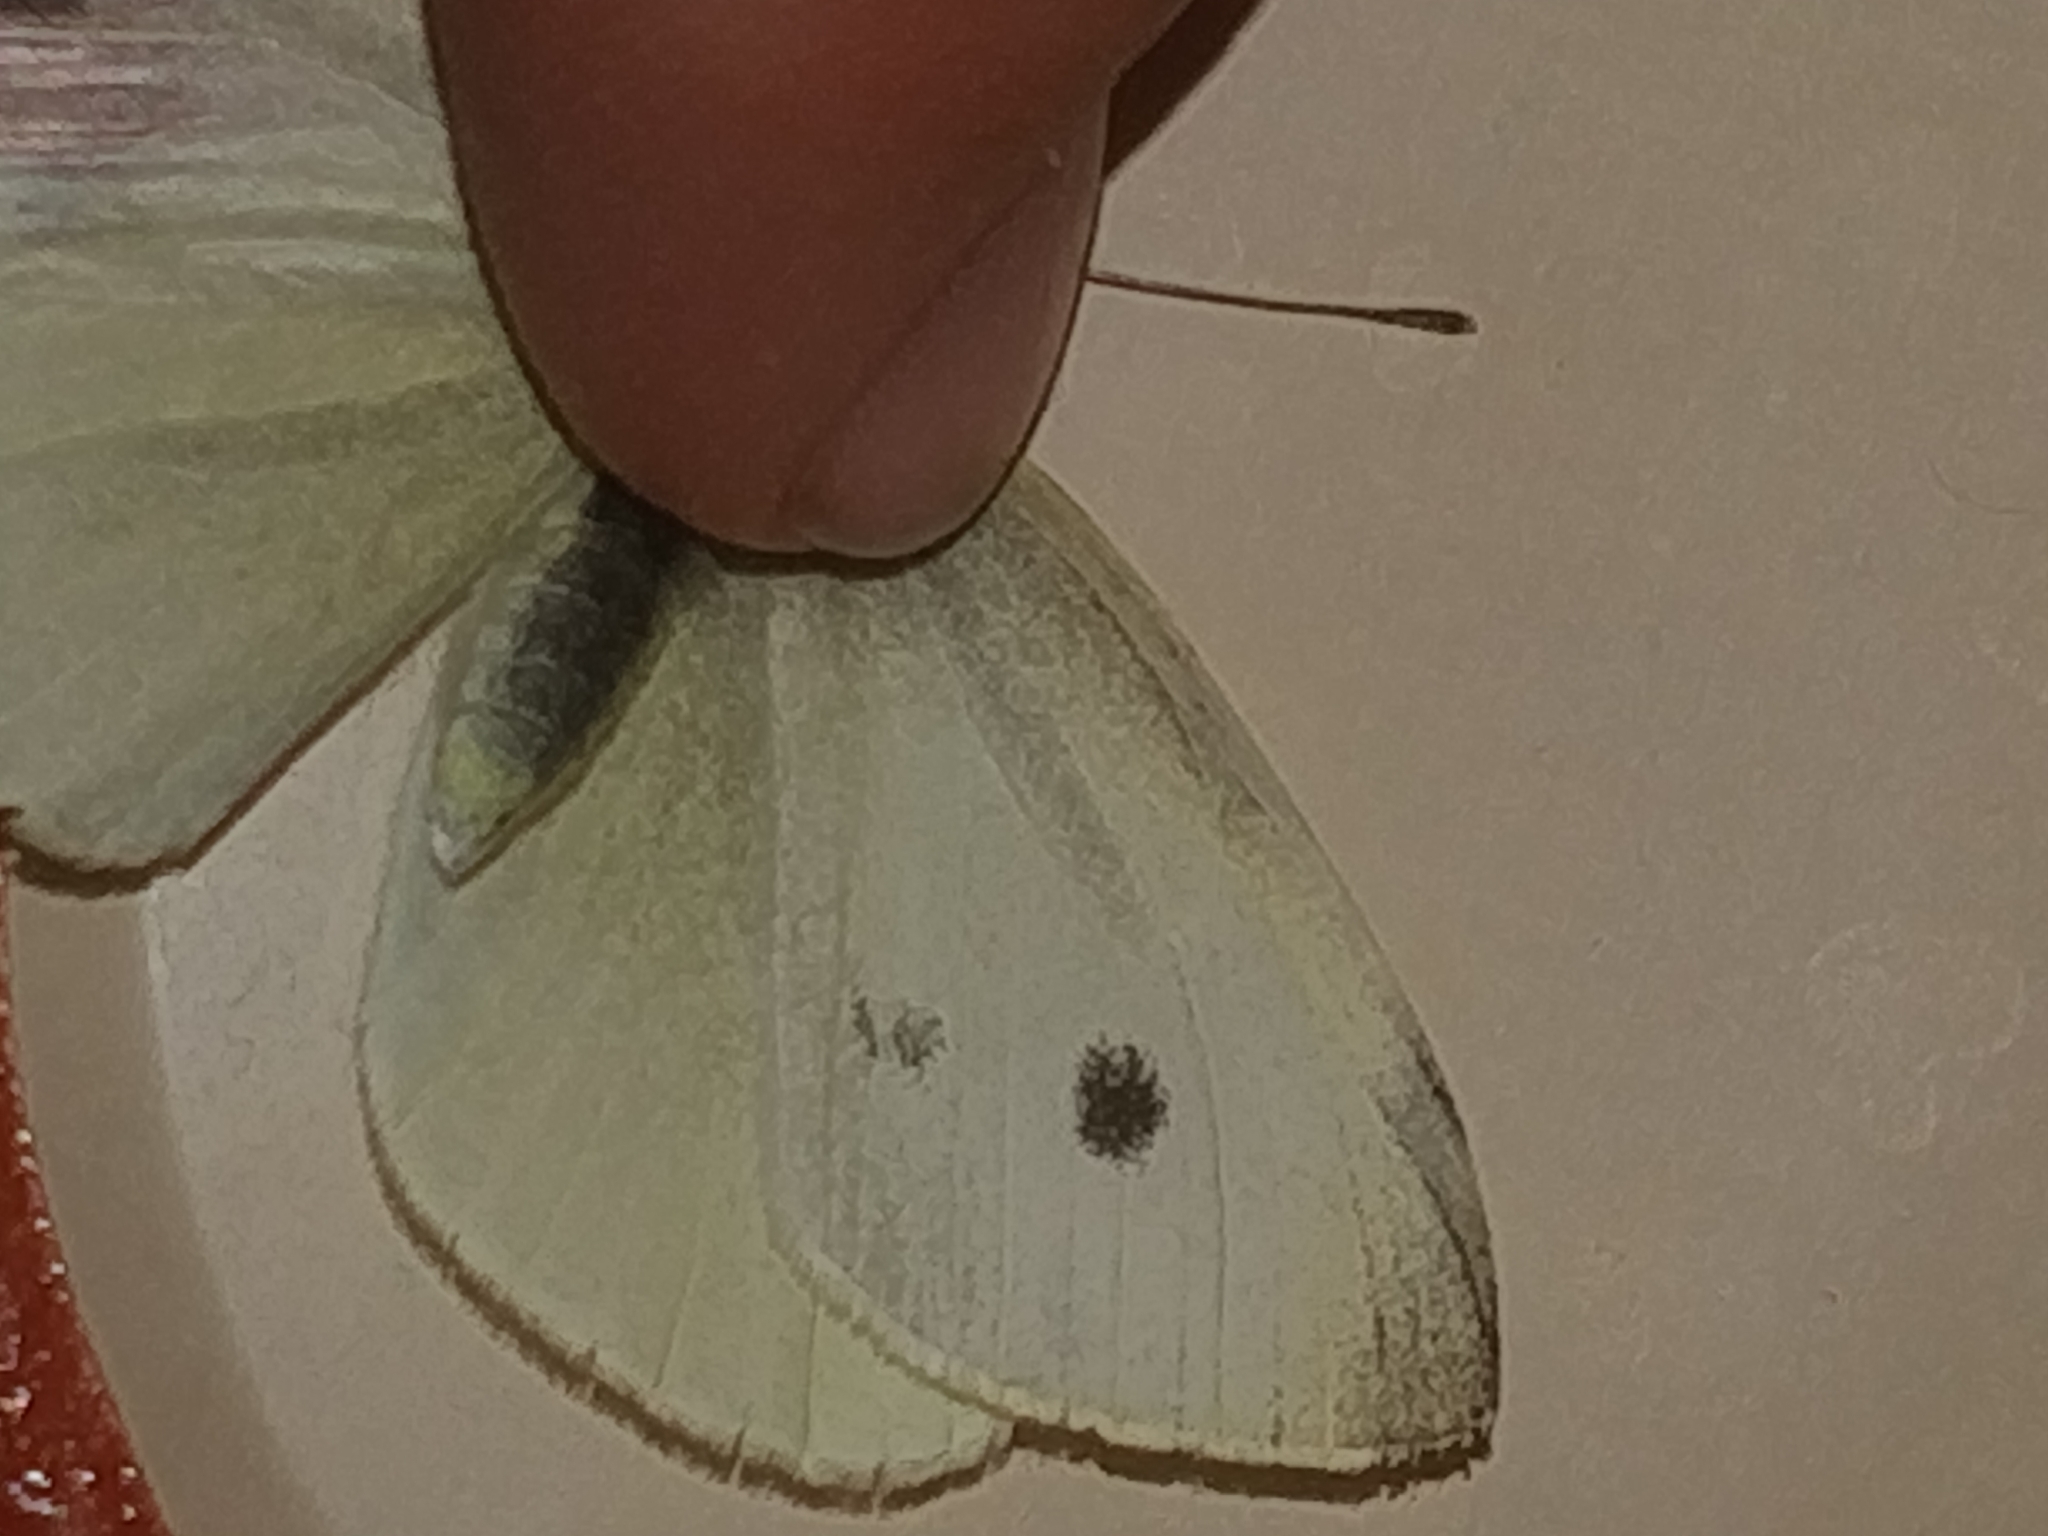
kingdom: Animalia
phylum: Arthropoda
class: Insecta
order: Lepidoptera
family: Pieridae
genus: Pieris
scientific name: Pieris rapae
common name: Small white
